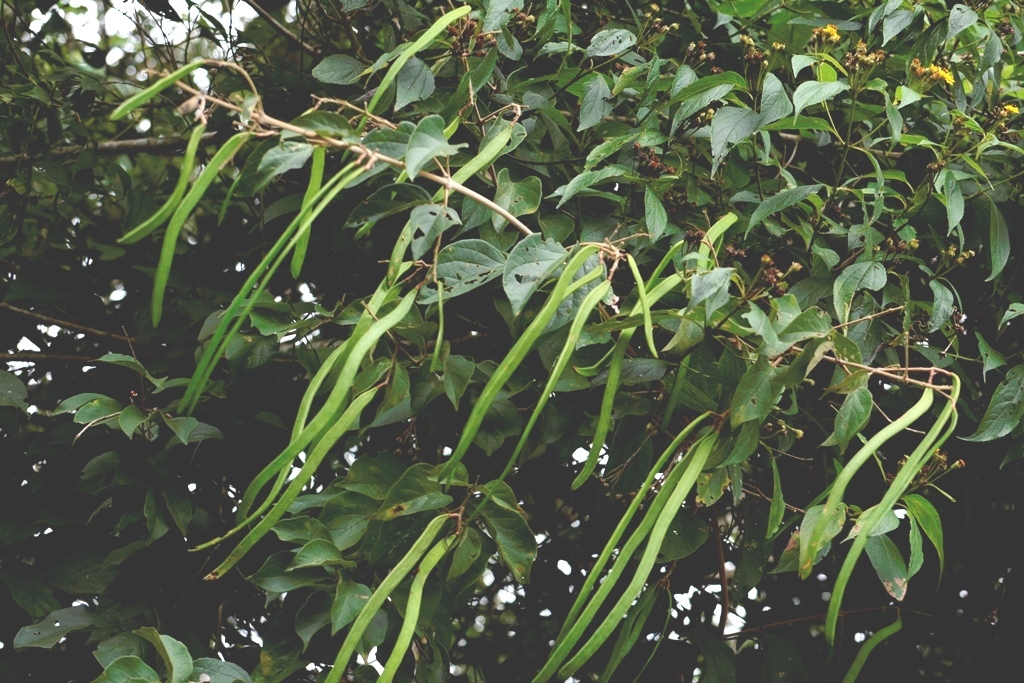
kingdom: Plantae
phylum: Tracheophyta
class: Magnoliopsida
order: Lamiales
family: Bignoniaceae
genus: Fridericia
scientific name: Fridericia chica
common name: Cricketvine
